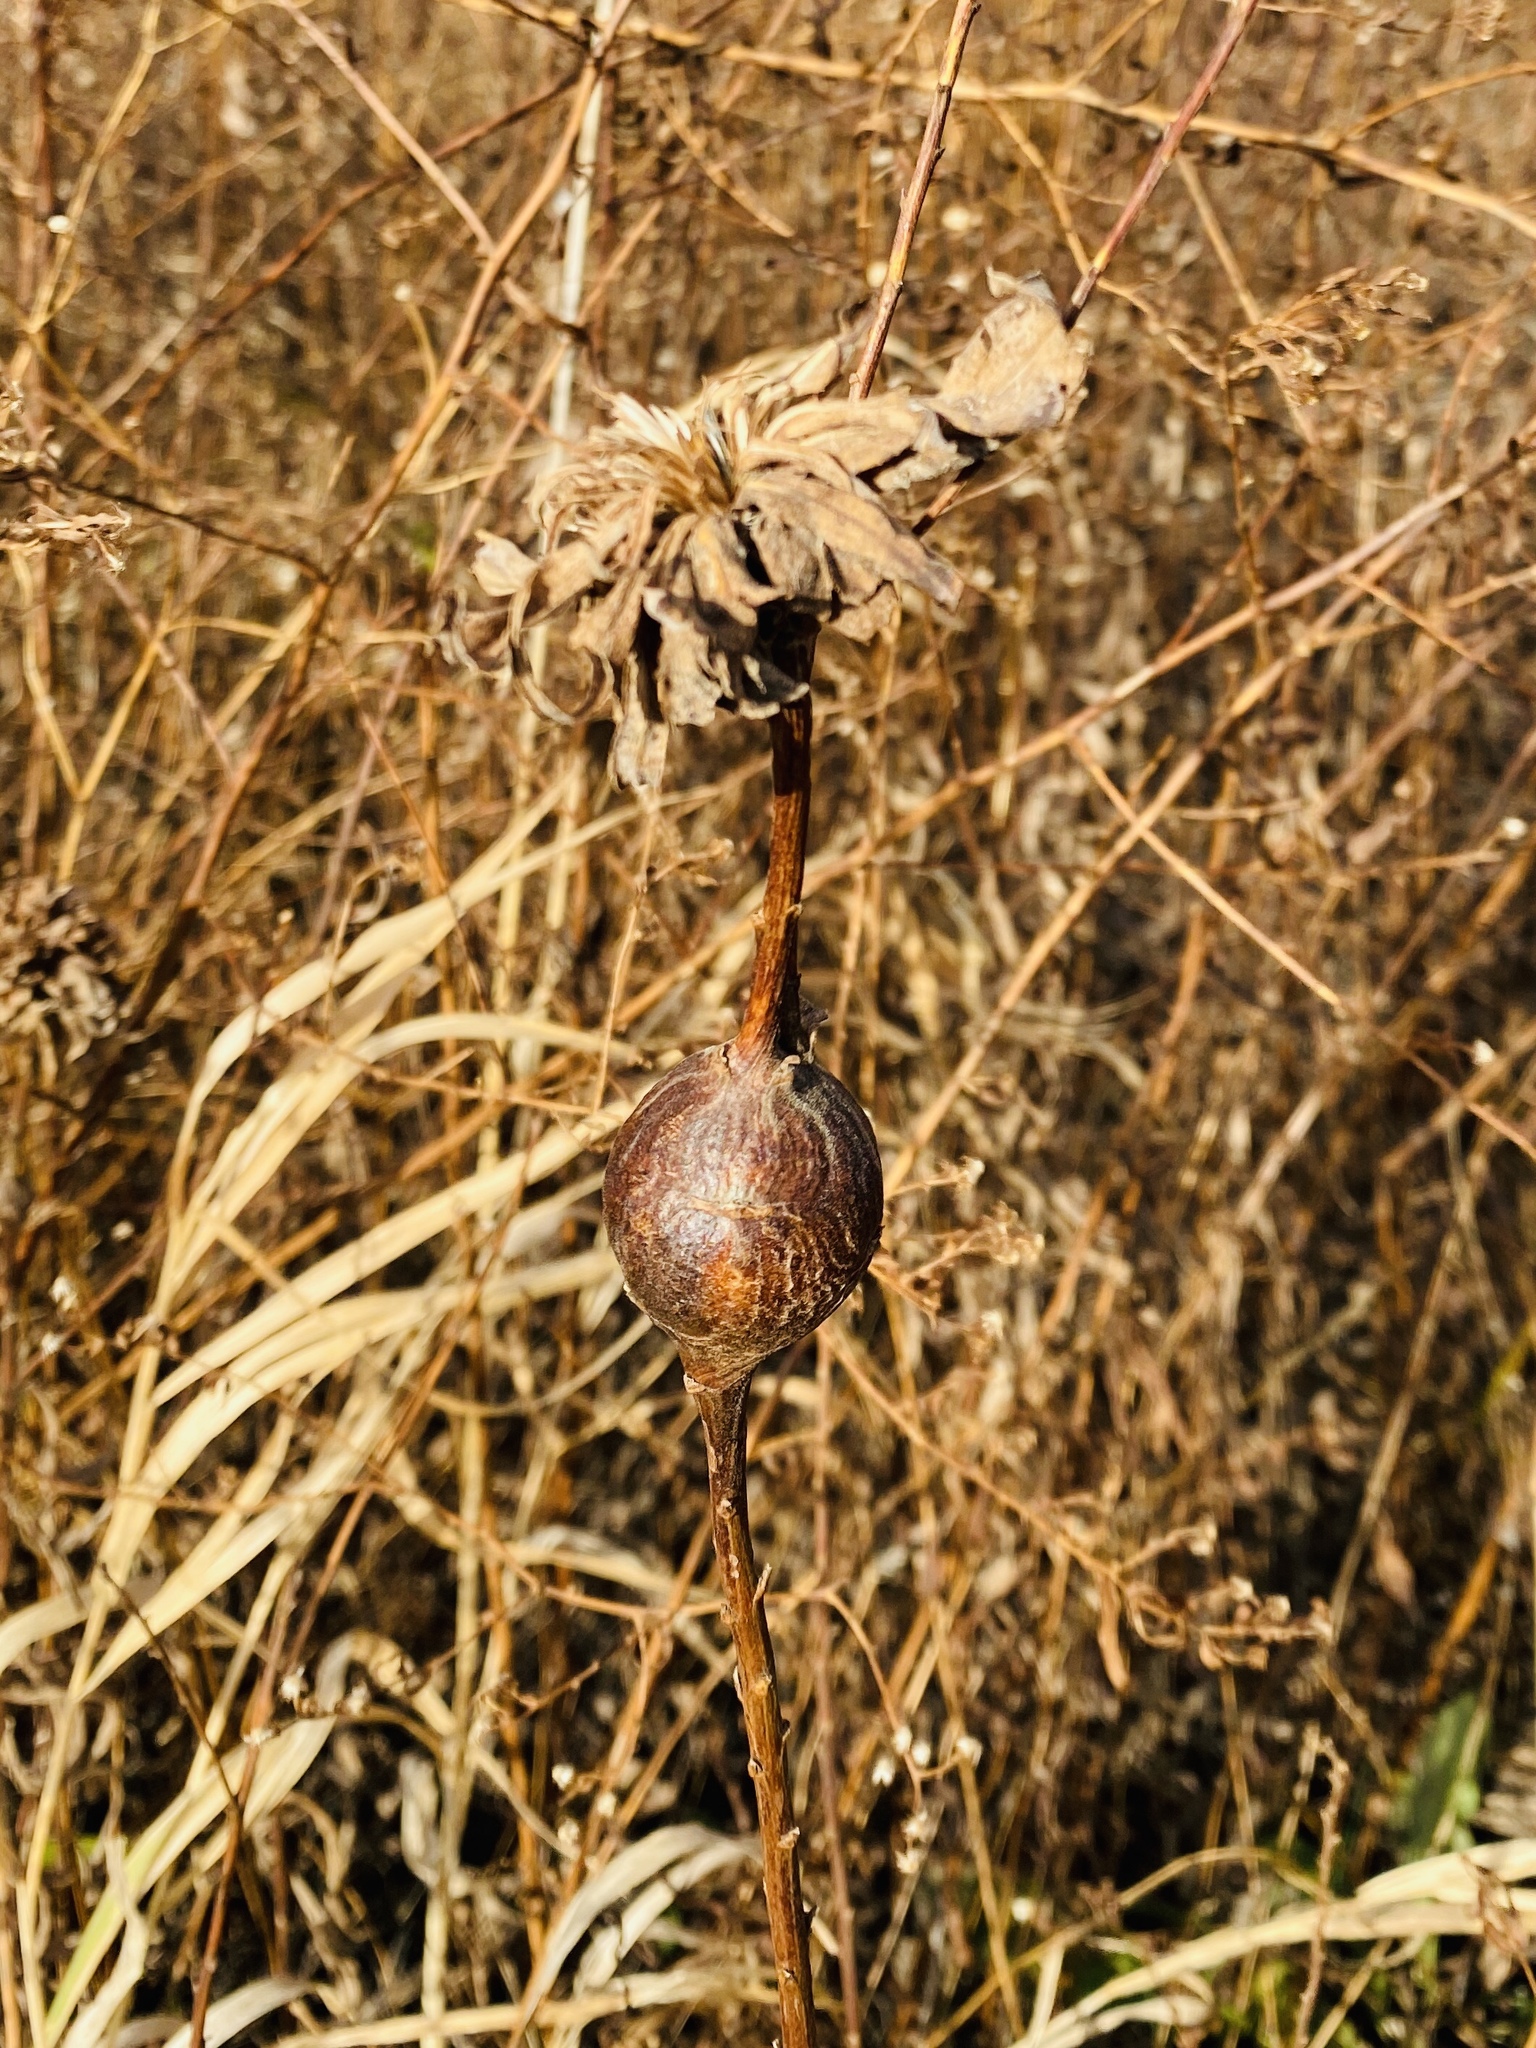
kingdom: Animalia
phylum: Arthropoda
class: Insecta
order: Diptera
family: Tephritidae
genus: Eurosta
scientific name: Eurosta solidaginis
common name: Goldenrod gall fly
